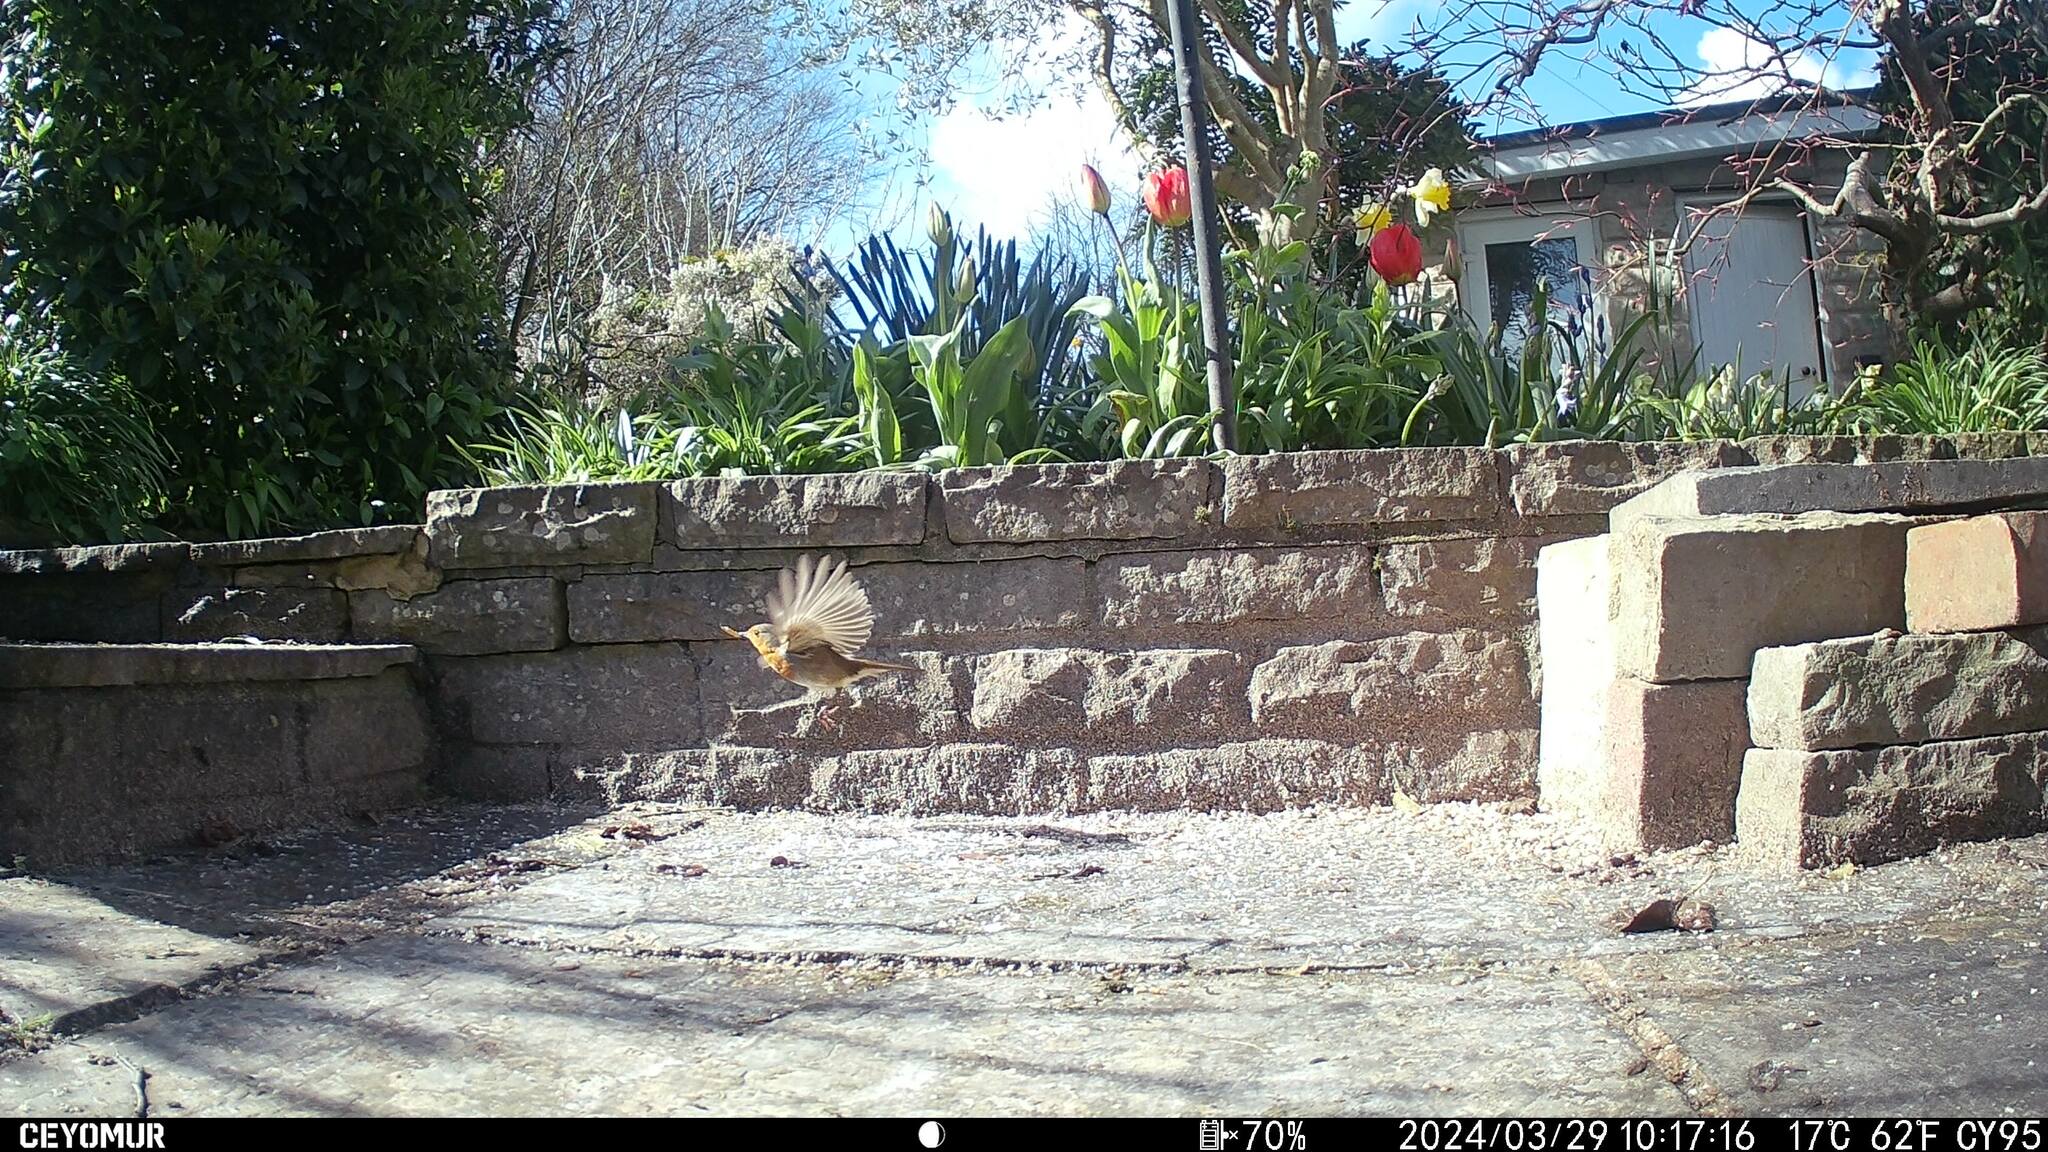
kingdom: Animalia
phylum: Chordata
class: Aves
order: Passeriformes
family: Muscicapidae
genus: Erithacus
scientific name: Erithacus rubecula
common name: European robin
